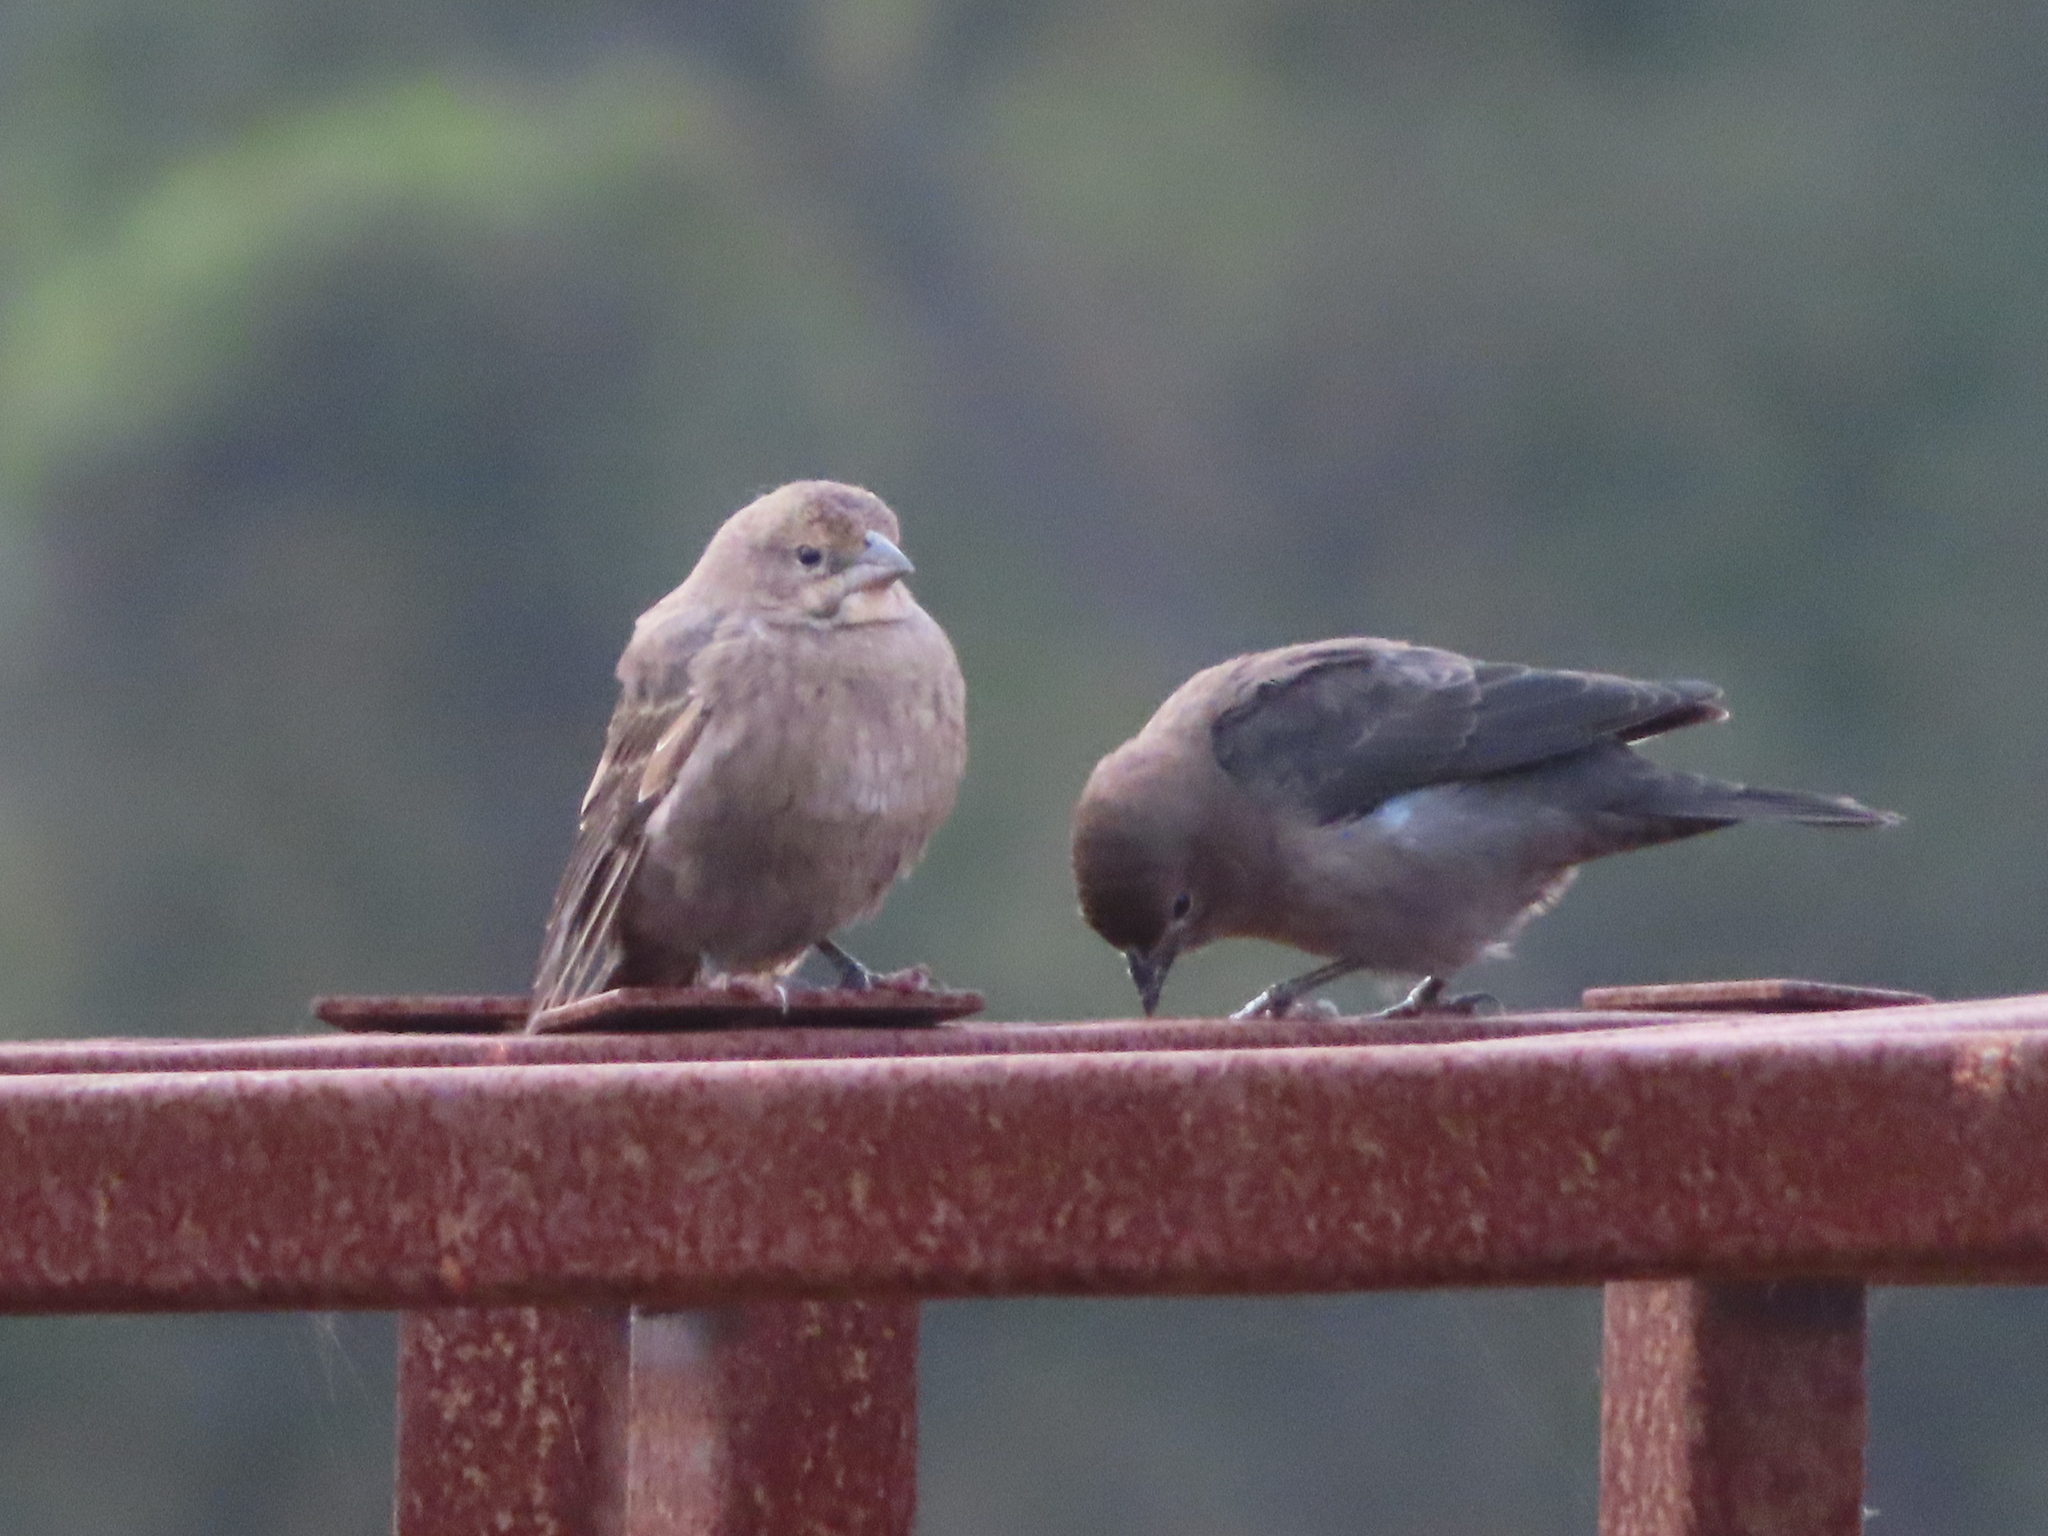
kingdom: Animalia
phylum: Chordata
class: Aves
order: Passeriformes
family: Icteridae
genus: Molothrus
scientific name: Molothrus ater
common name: Brown-headed cowbird
